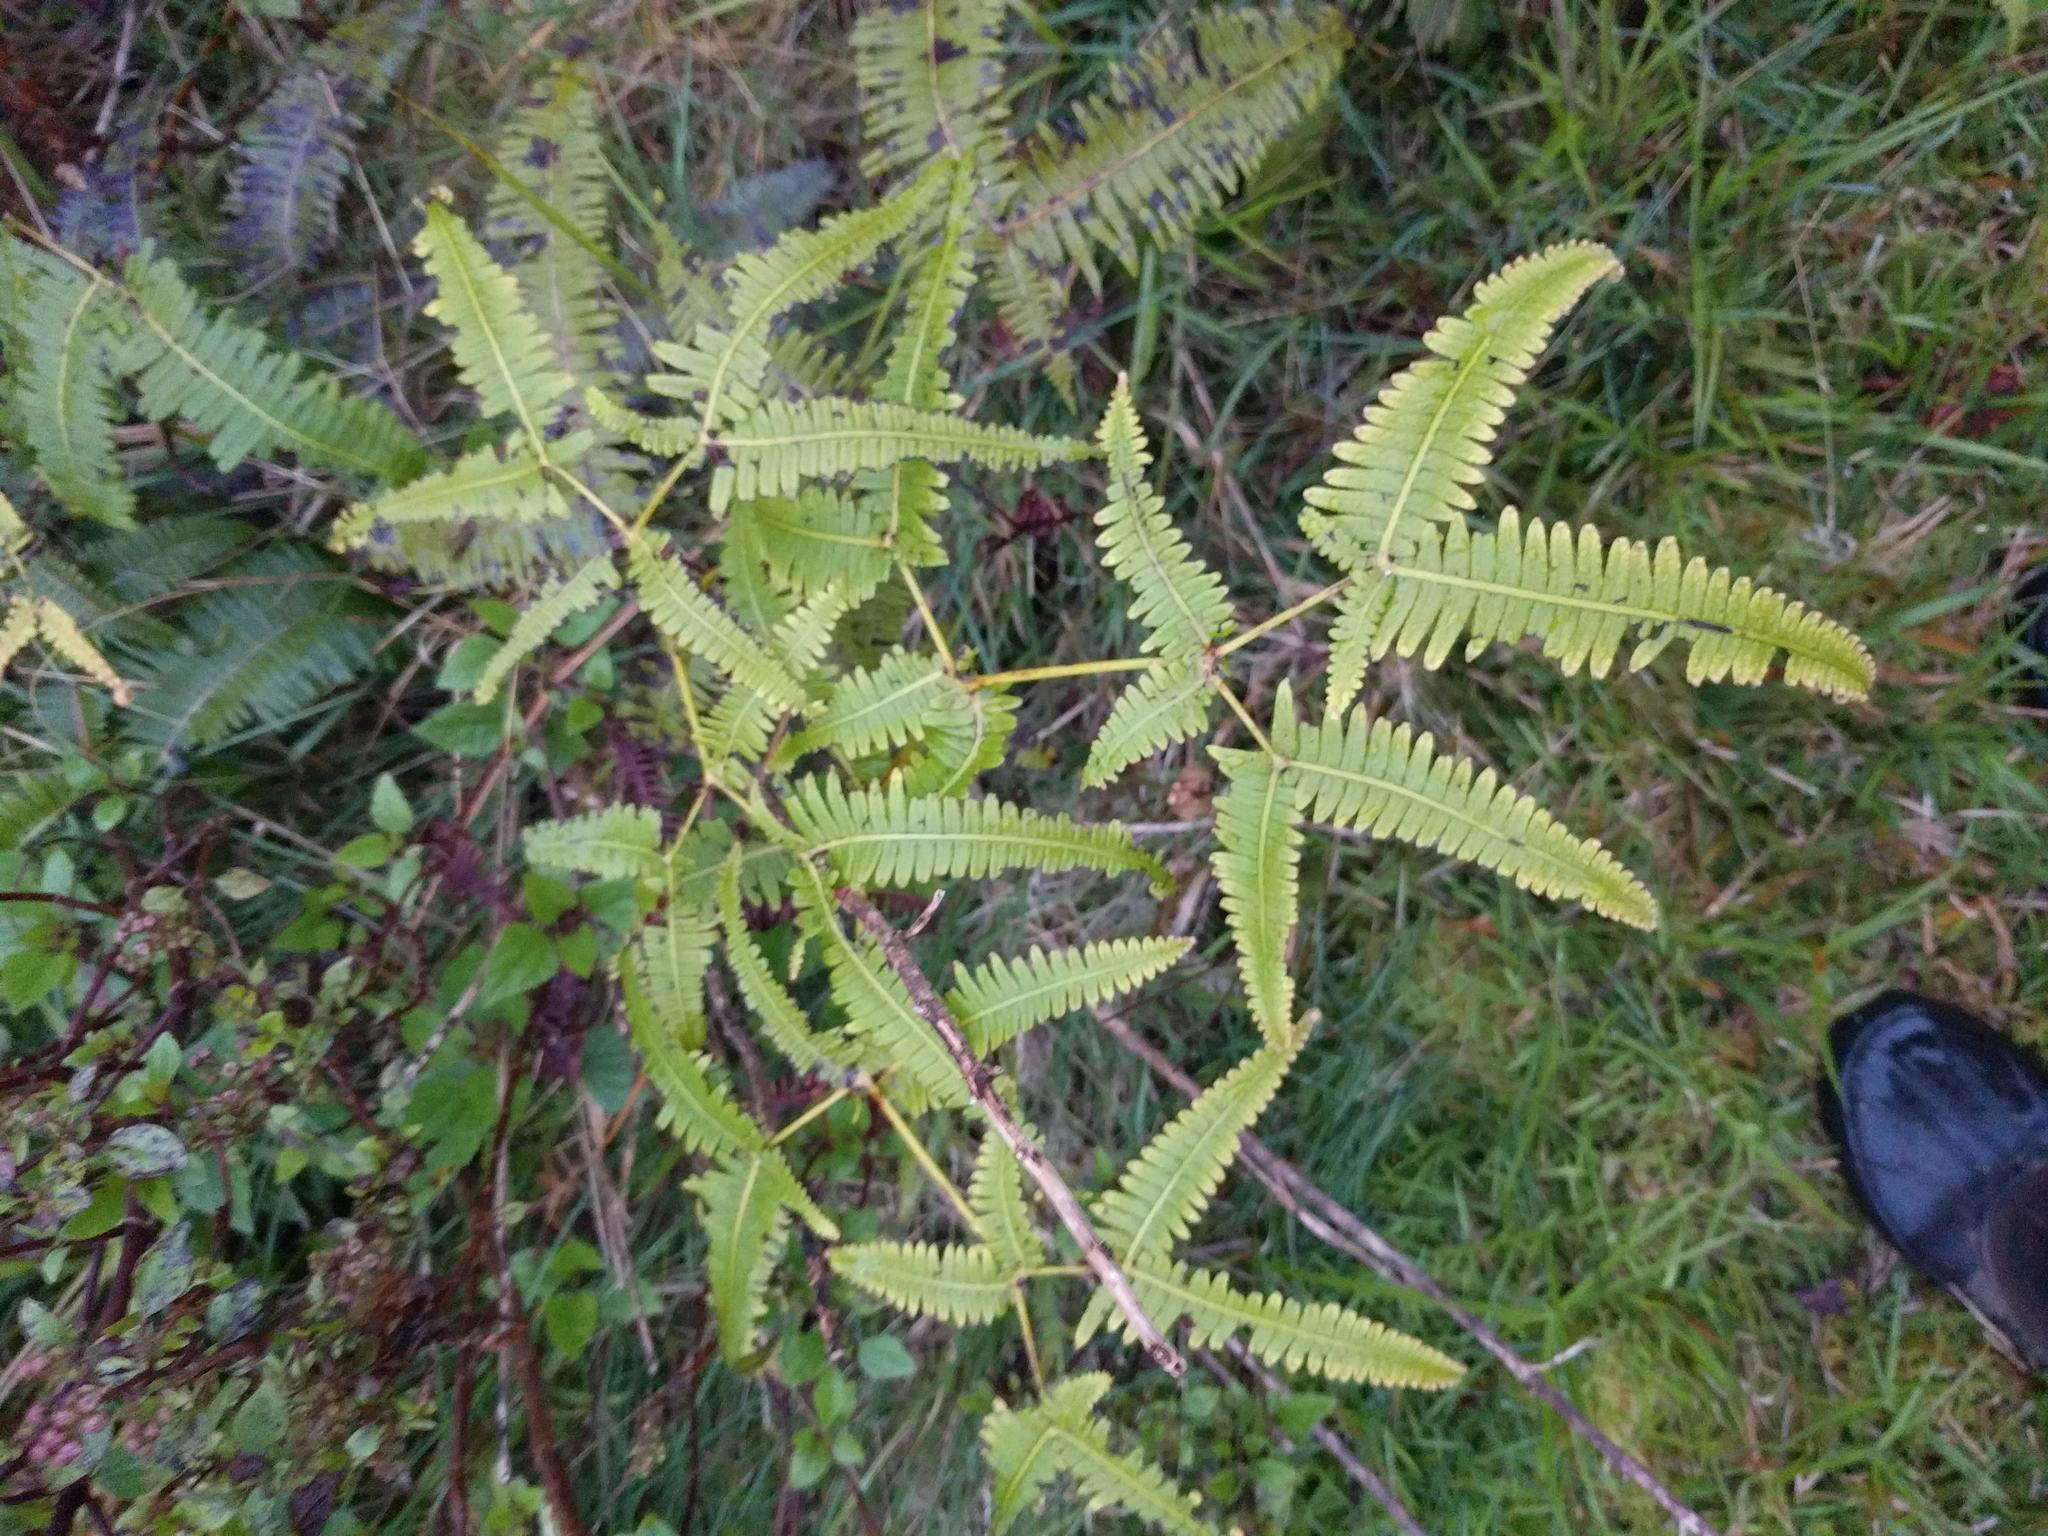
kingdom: Plantae
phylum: Tracheophyta
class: Polypodiopsida
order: Gleicheniales
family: Gleicheniaceae
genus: Dicranopteris
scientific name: Dicranopteris linearis
